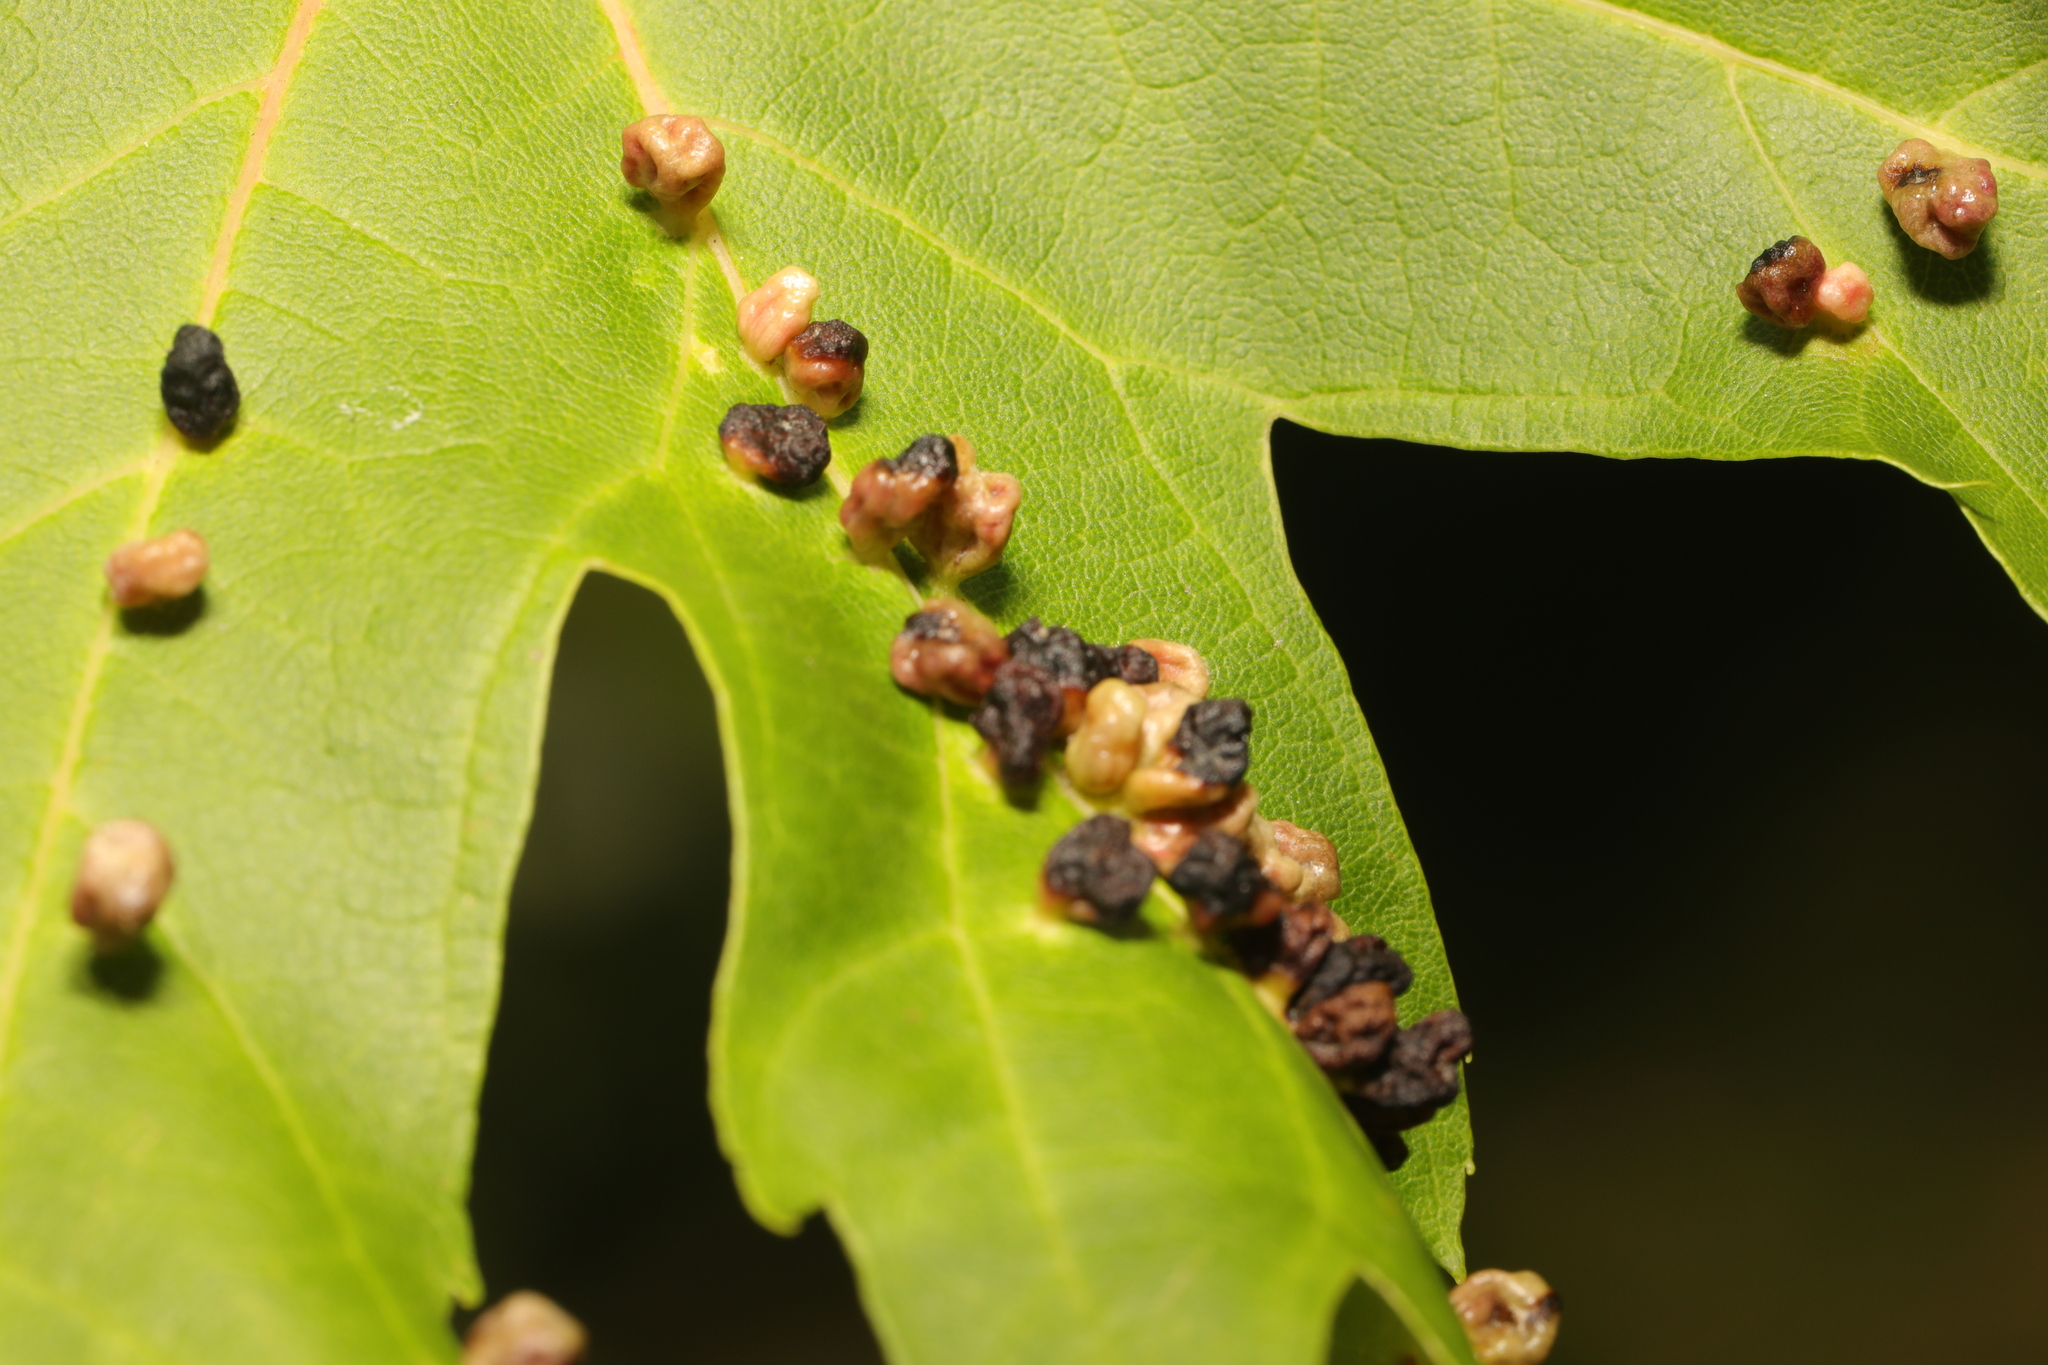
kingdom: Animalia
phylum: Arthropoda
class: Arachnida
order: Trombidiformes
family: Eriophyidae
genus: Vasates
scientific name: Vasates quadripedes
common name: Maple bladder gall mite
